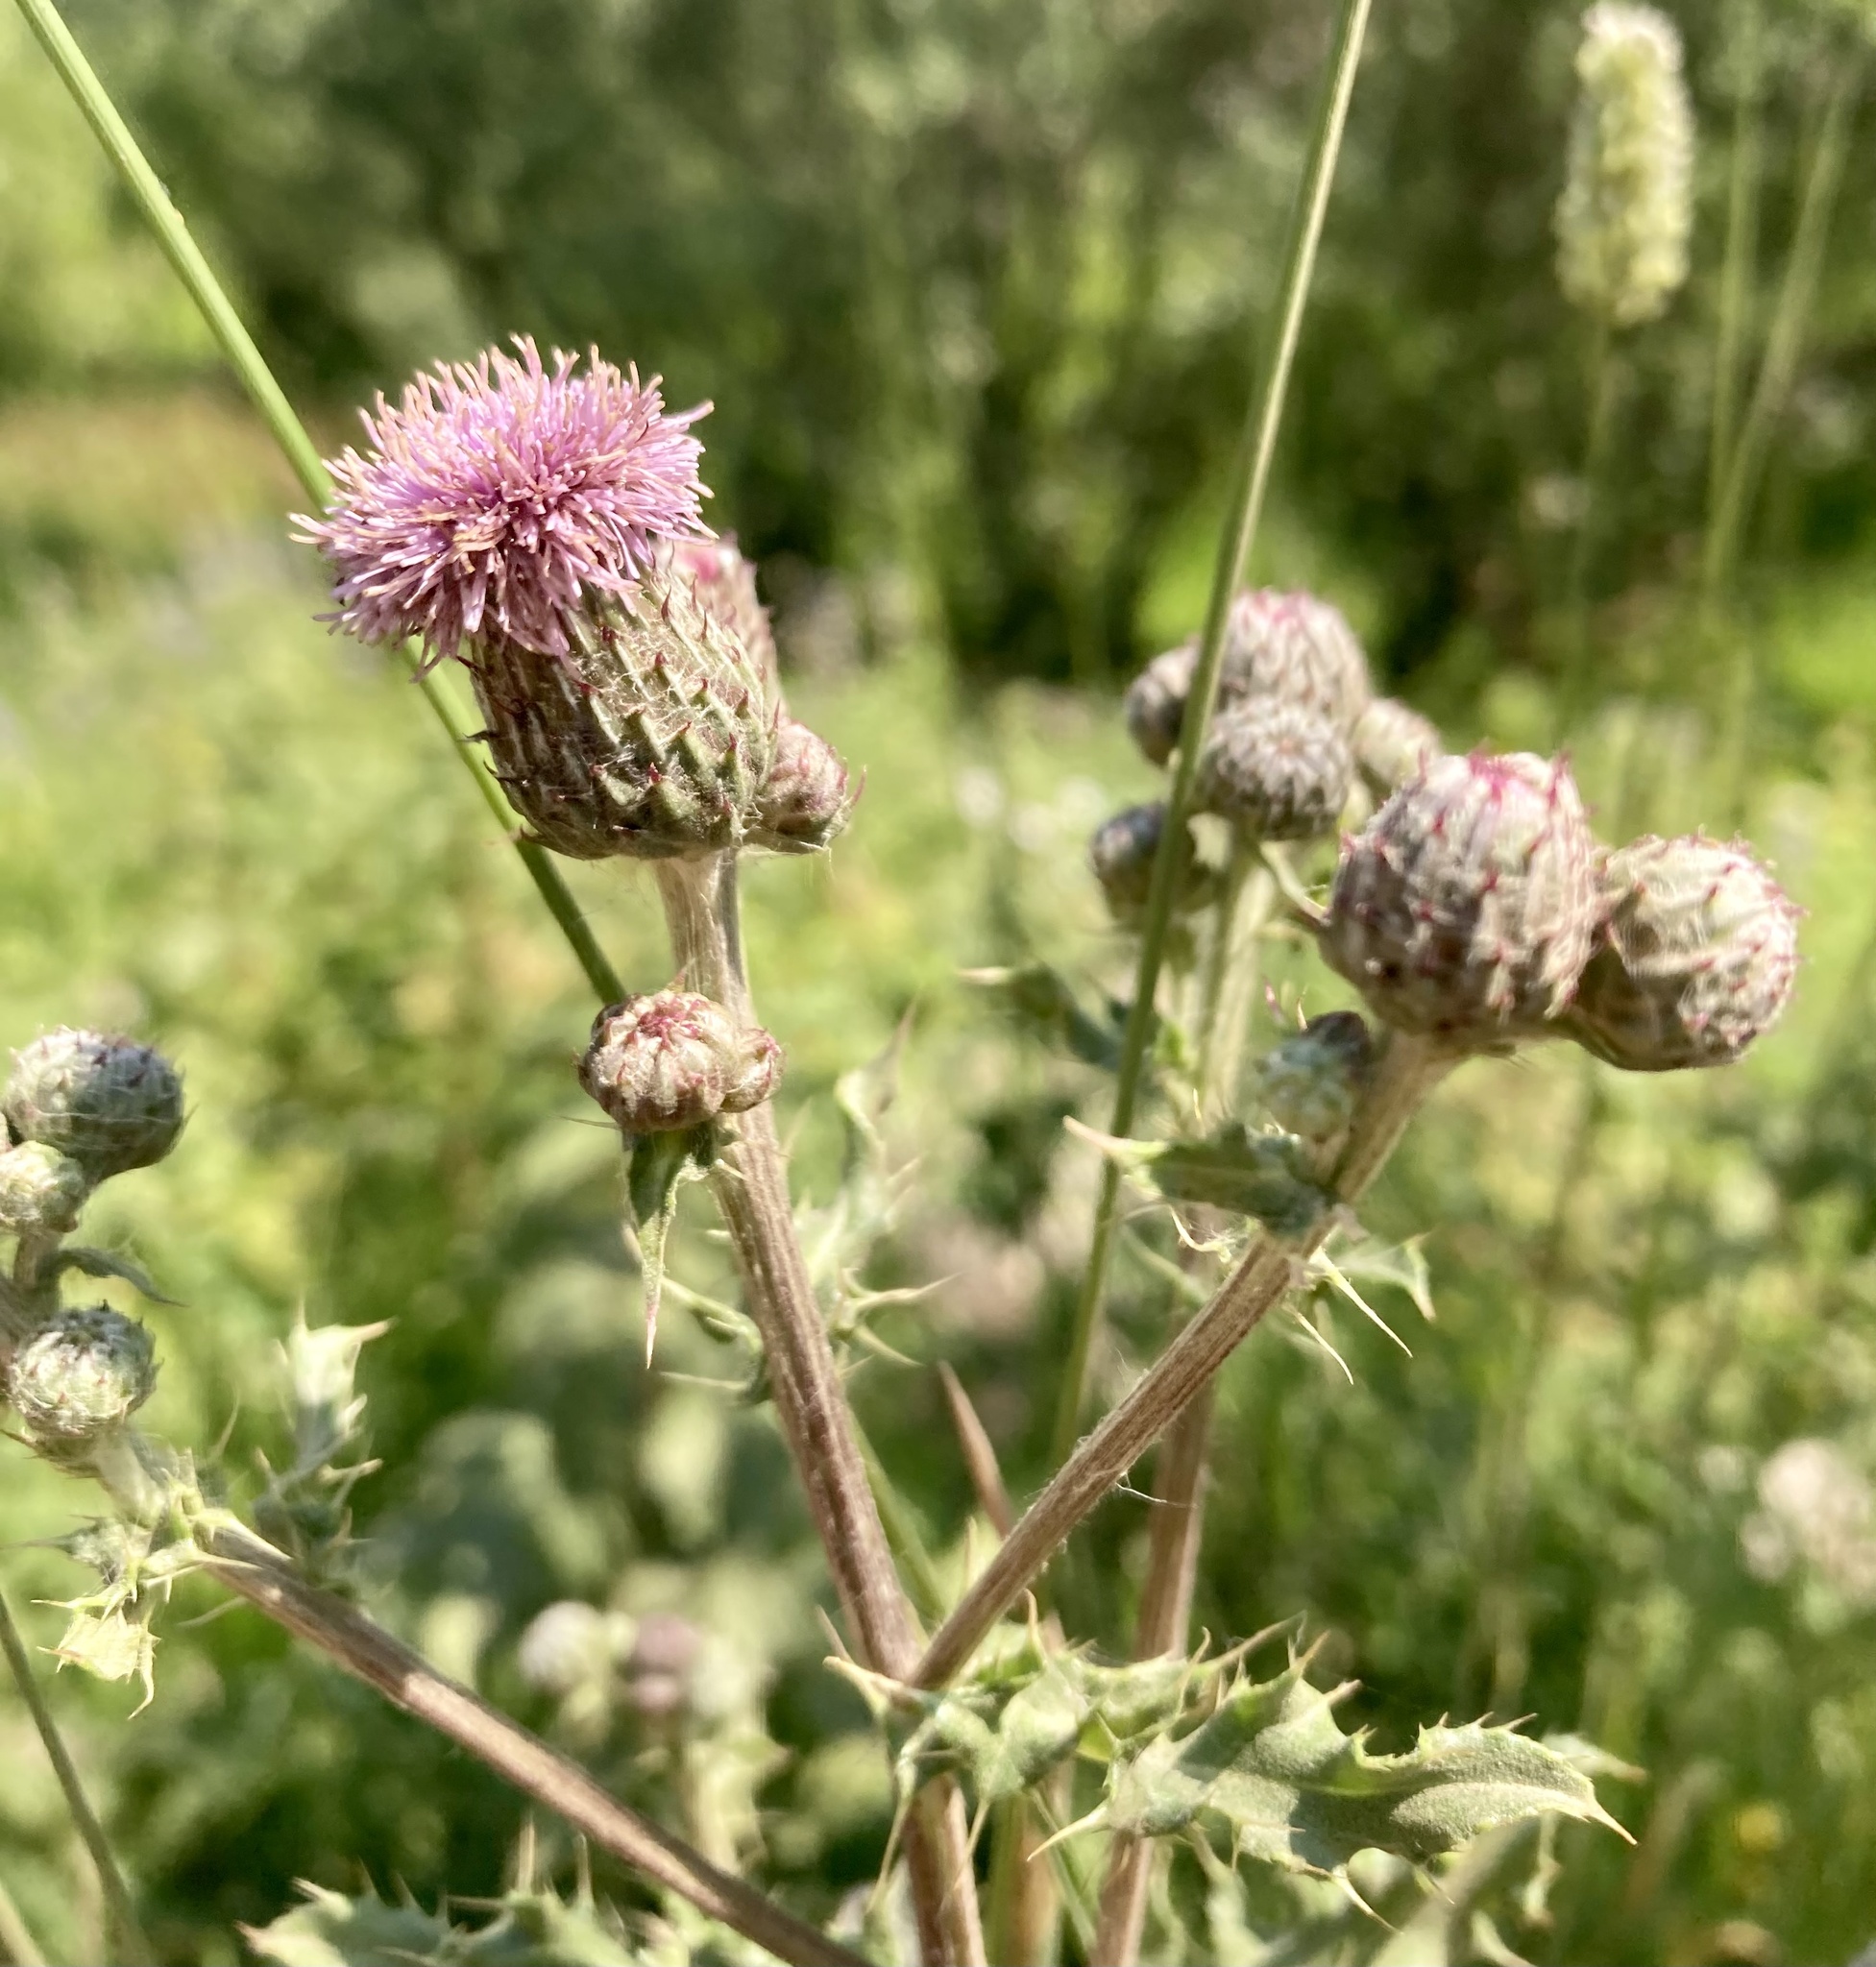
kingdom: Plantae
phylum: Tracheophyta
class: Magnoliopsida
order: Asterales
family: Asteraceae
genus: Cirsium
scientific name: Cirsium arvense
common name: Creeping thistle
